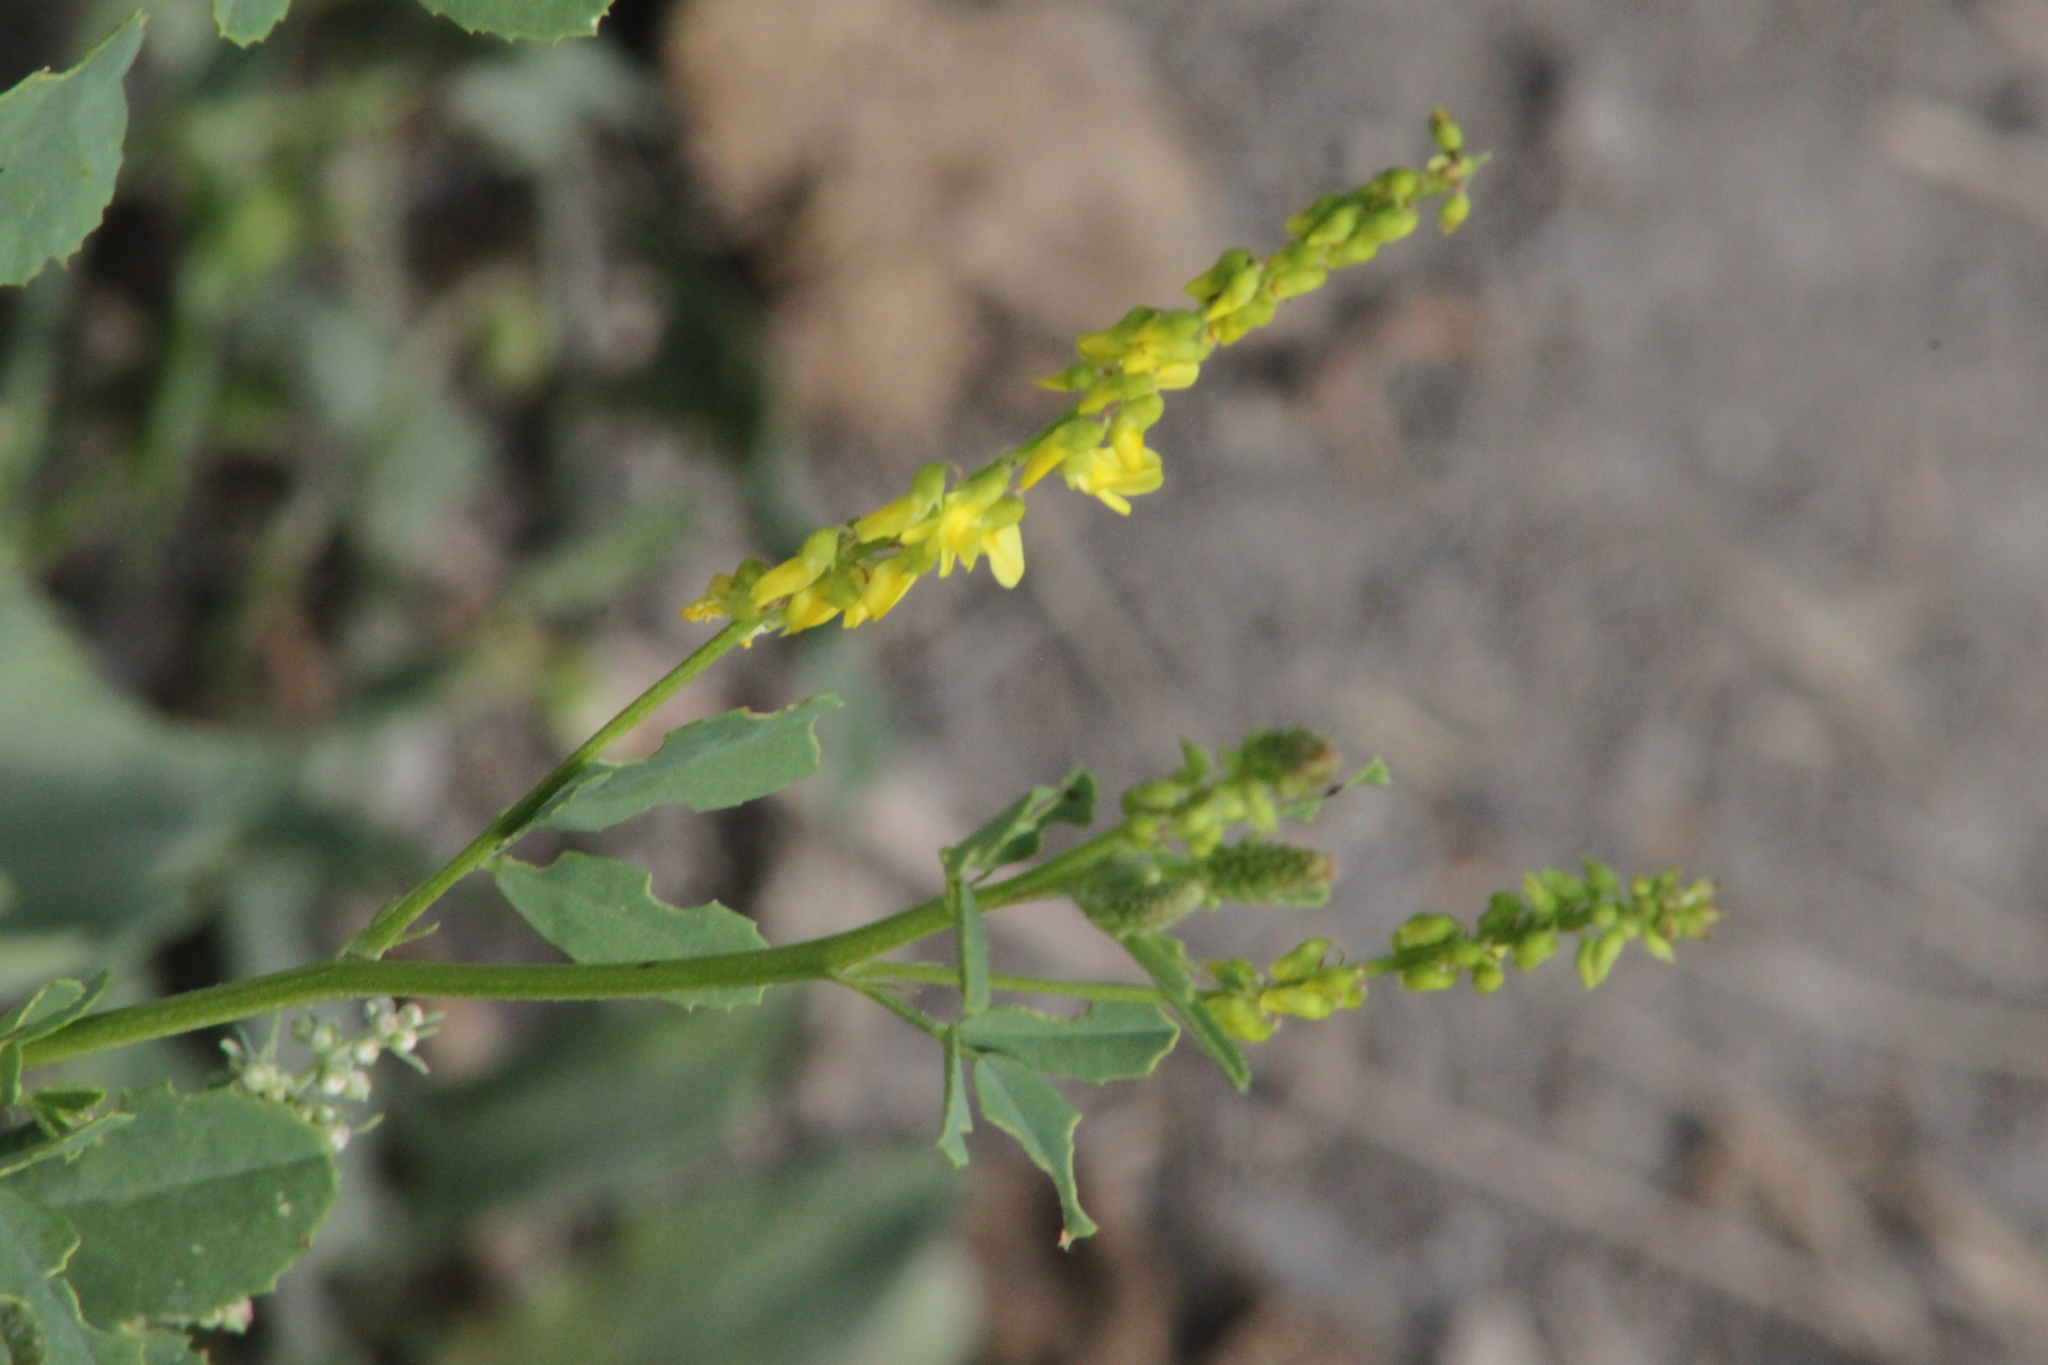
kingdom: Plantae
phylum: Tracheophyta
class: Magnoliopsida
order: Fabales
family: Fabaceae
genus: Melilotus
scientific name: Melilotus officinalis
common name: Sweetclover
